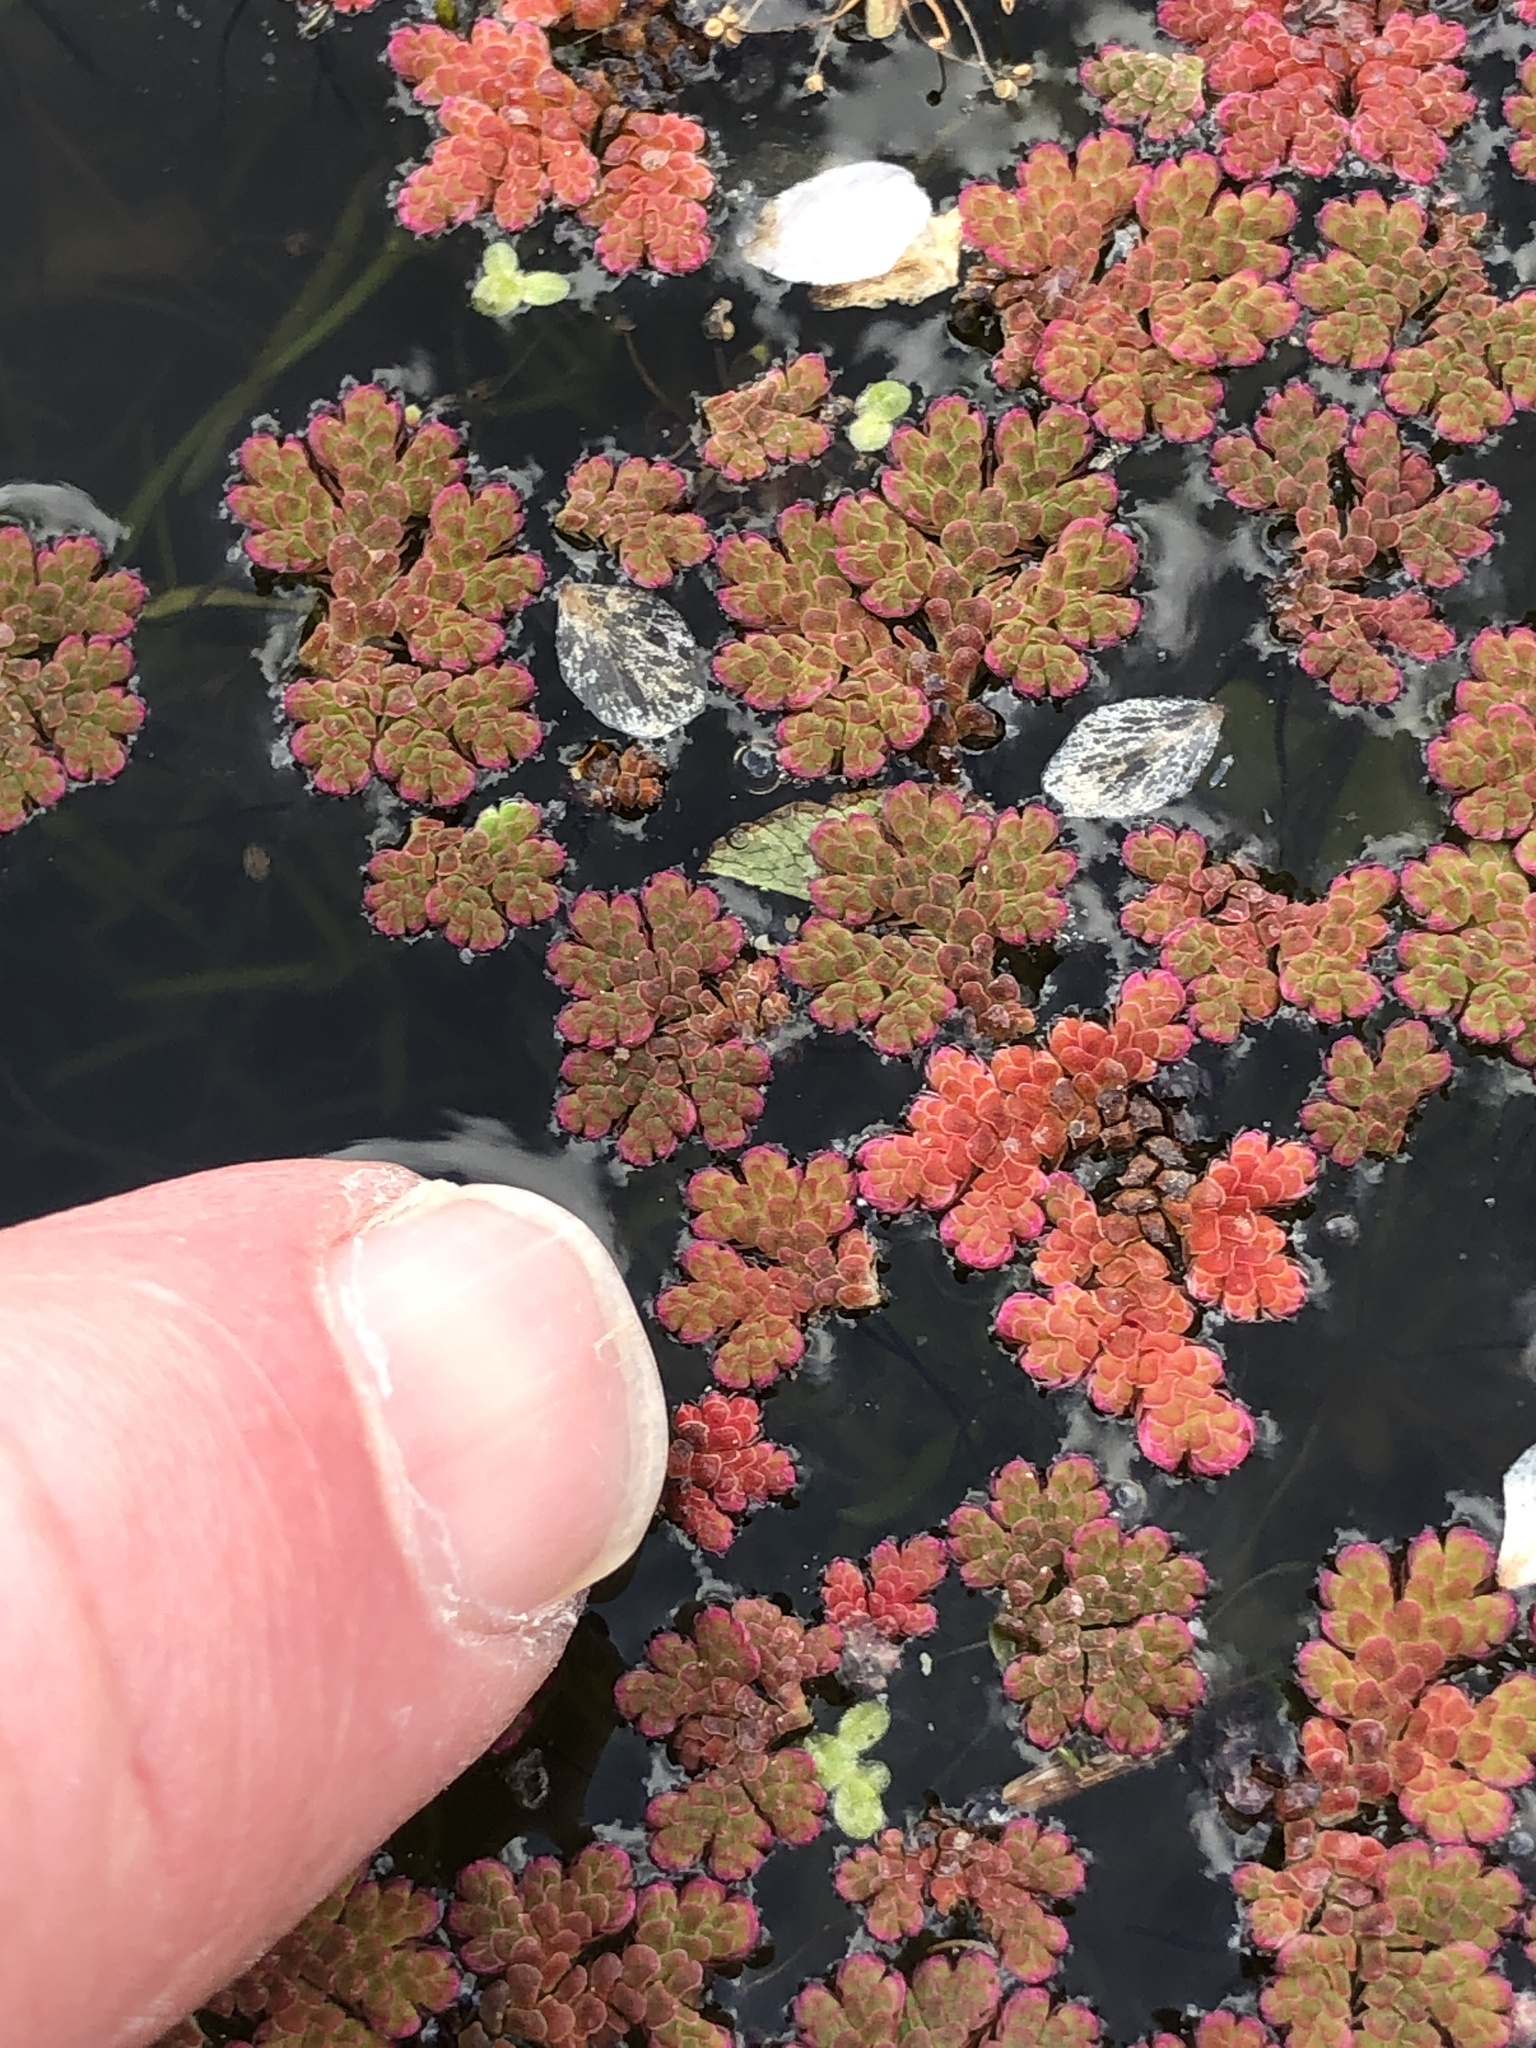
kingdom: Plantae
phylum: Tracheophyta
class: Polypodiopsida
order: Salviniales
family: Salviniaceae
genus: Azolla
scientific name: Azolla filiculoides
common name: Water fern
